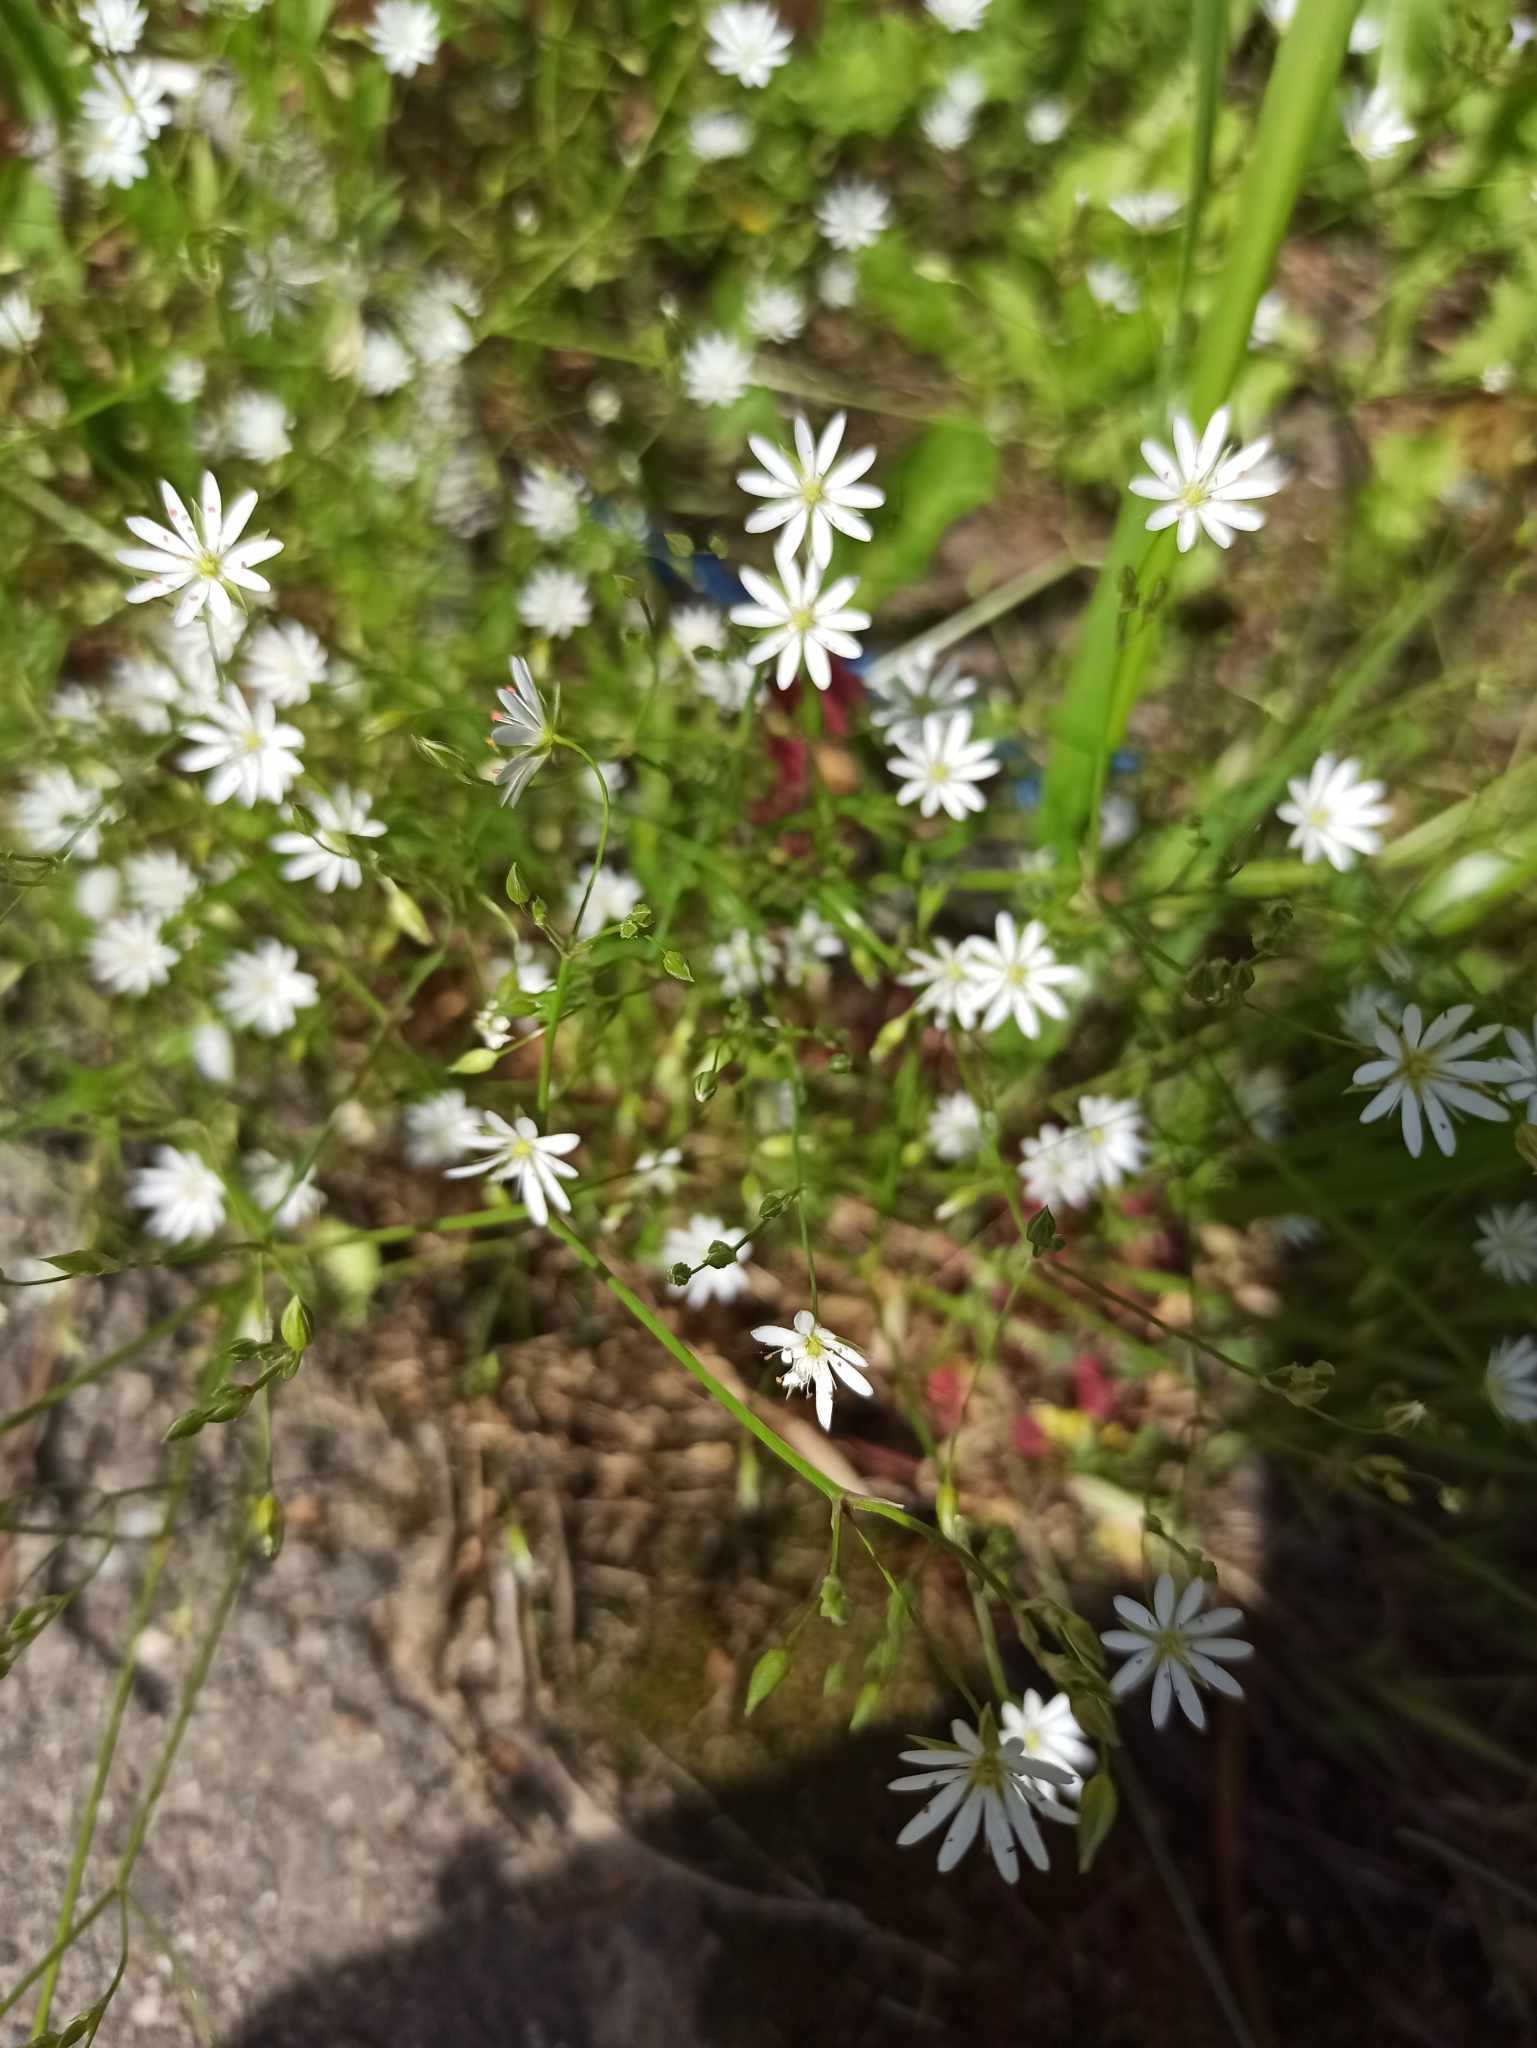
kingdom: Plantae
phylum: Tracheophyta
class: Magnoliopsida
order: Caryophyllales
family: Caryophyllaceae
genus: Stellaria
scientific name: Stellaria graminea
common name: Grass-like starwort
